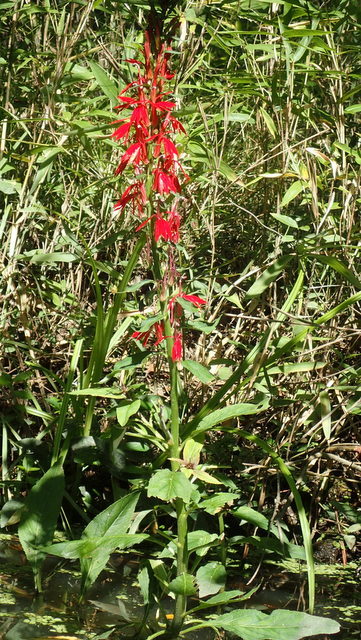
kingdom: Plantae
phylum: Tracheophyta
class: Magnoliopsida
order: Asterales
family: Campanulaceae
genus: Lobelia
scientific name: Lobelia cardinalis
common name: Cardinal flower
